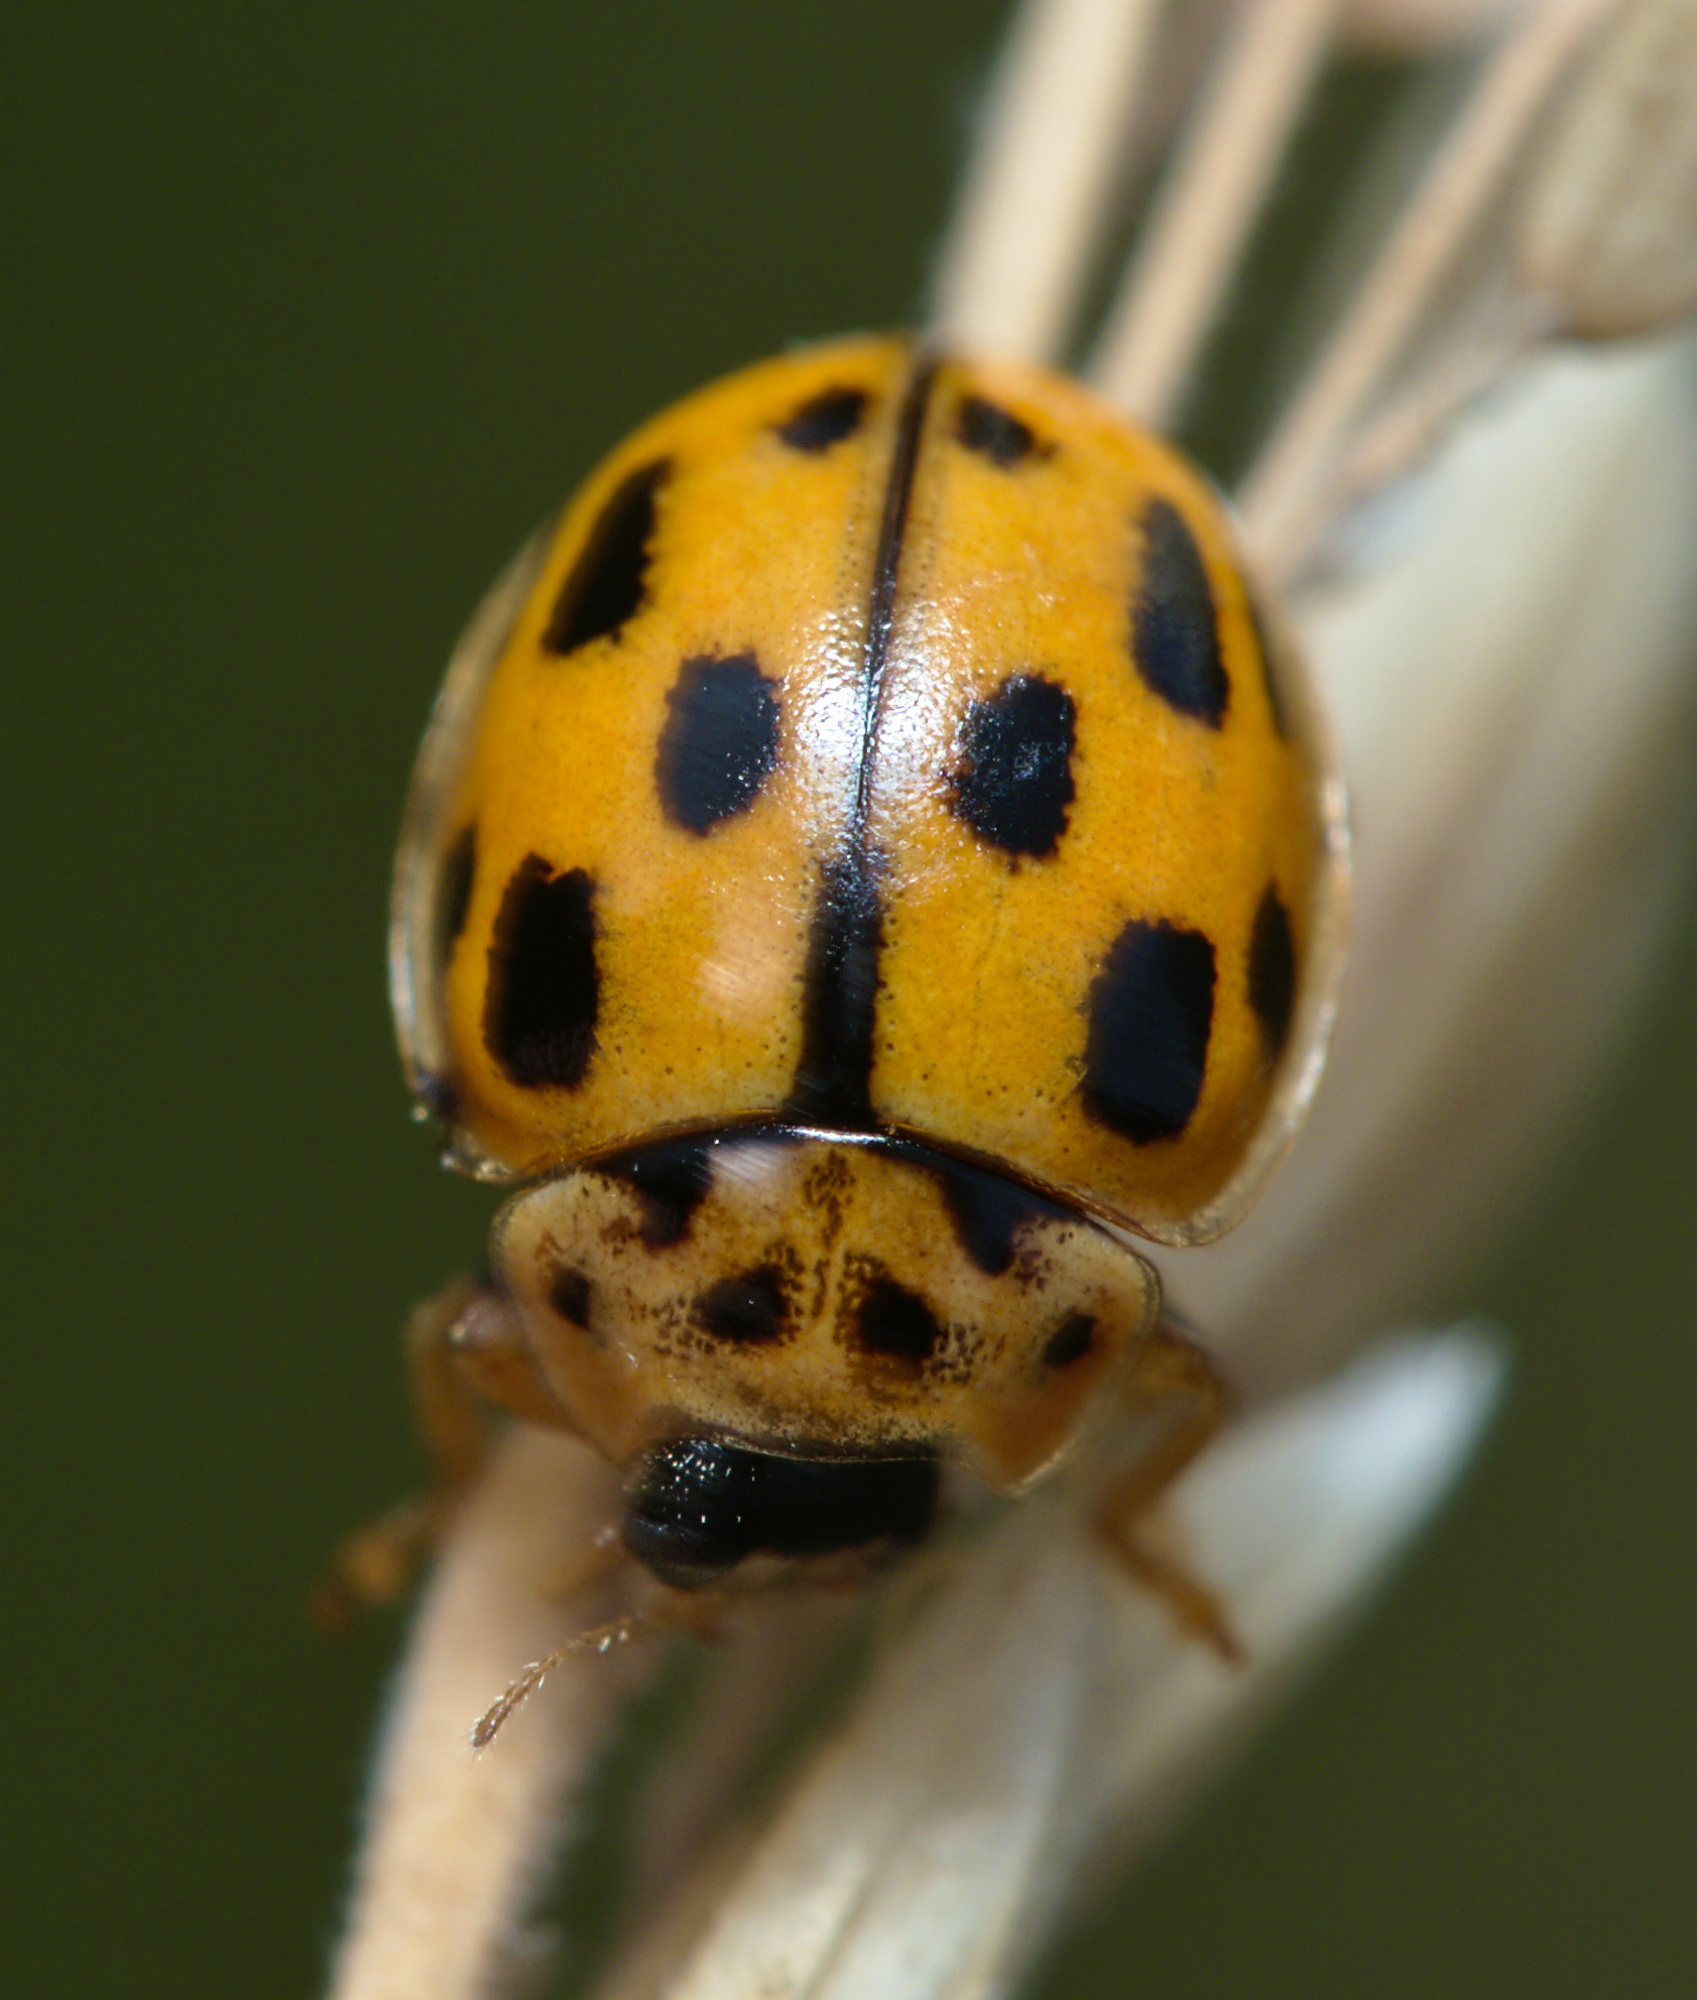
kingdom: Animalia
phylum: Arthropoda
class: Insecta
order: Coleoptera
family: Coccinellidae
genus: Propylaea
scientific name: Propylaea quatuordecimpunctata
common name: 14-spotted ladybird beetle
